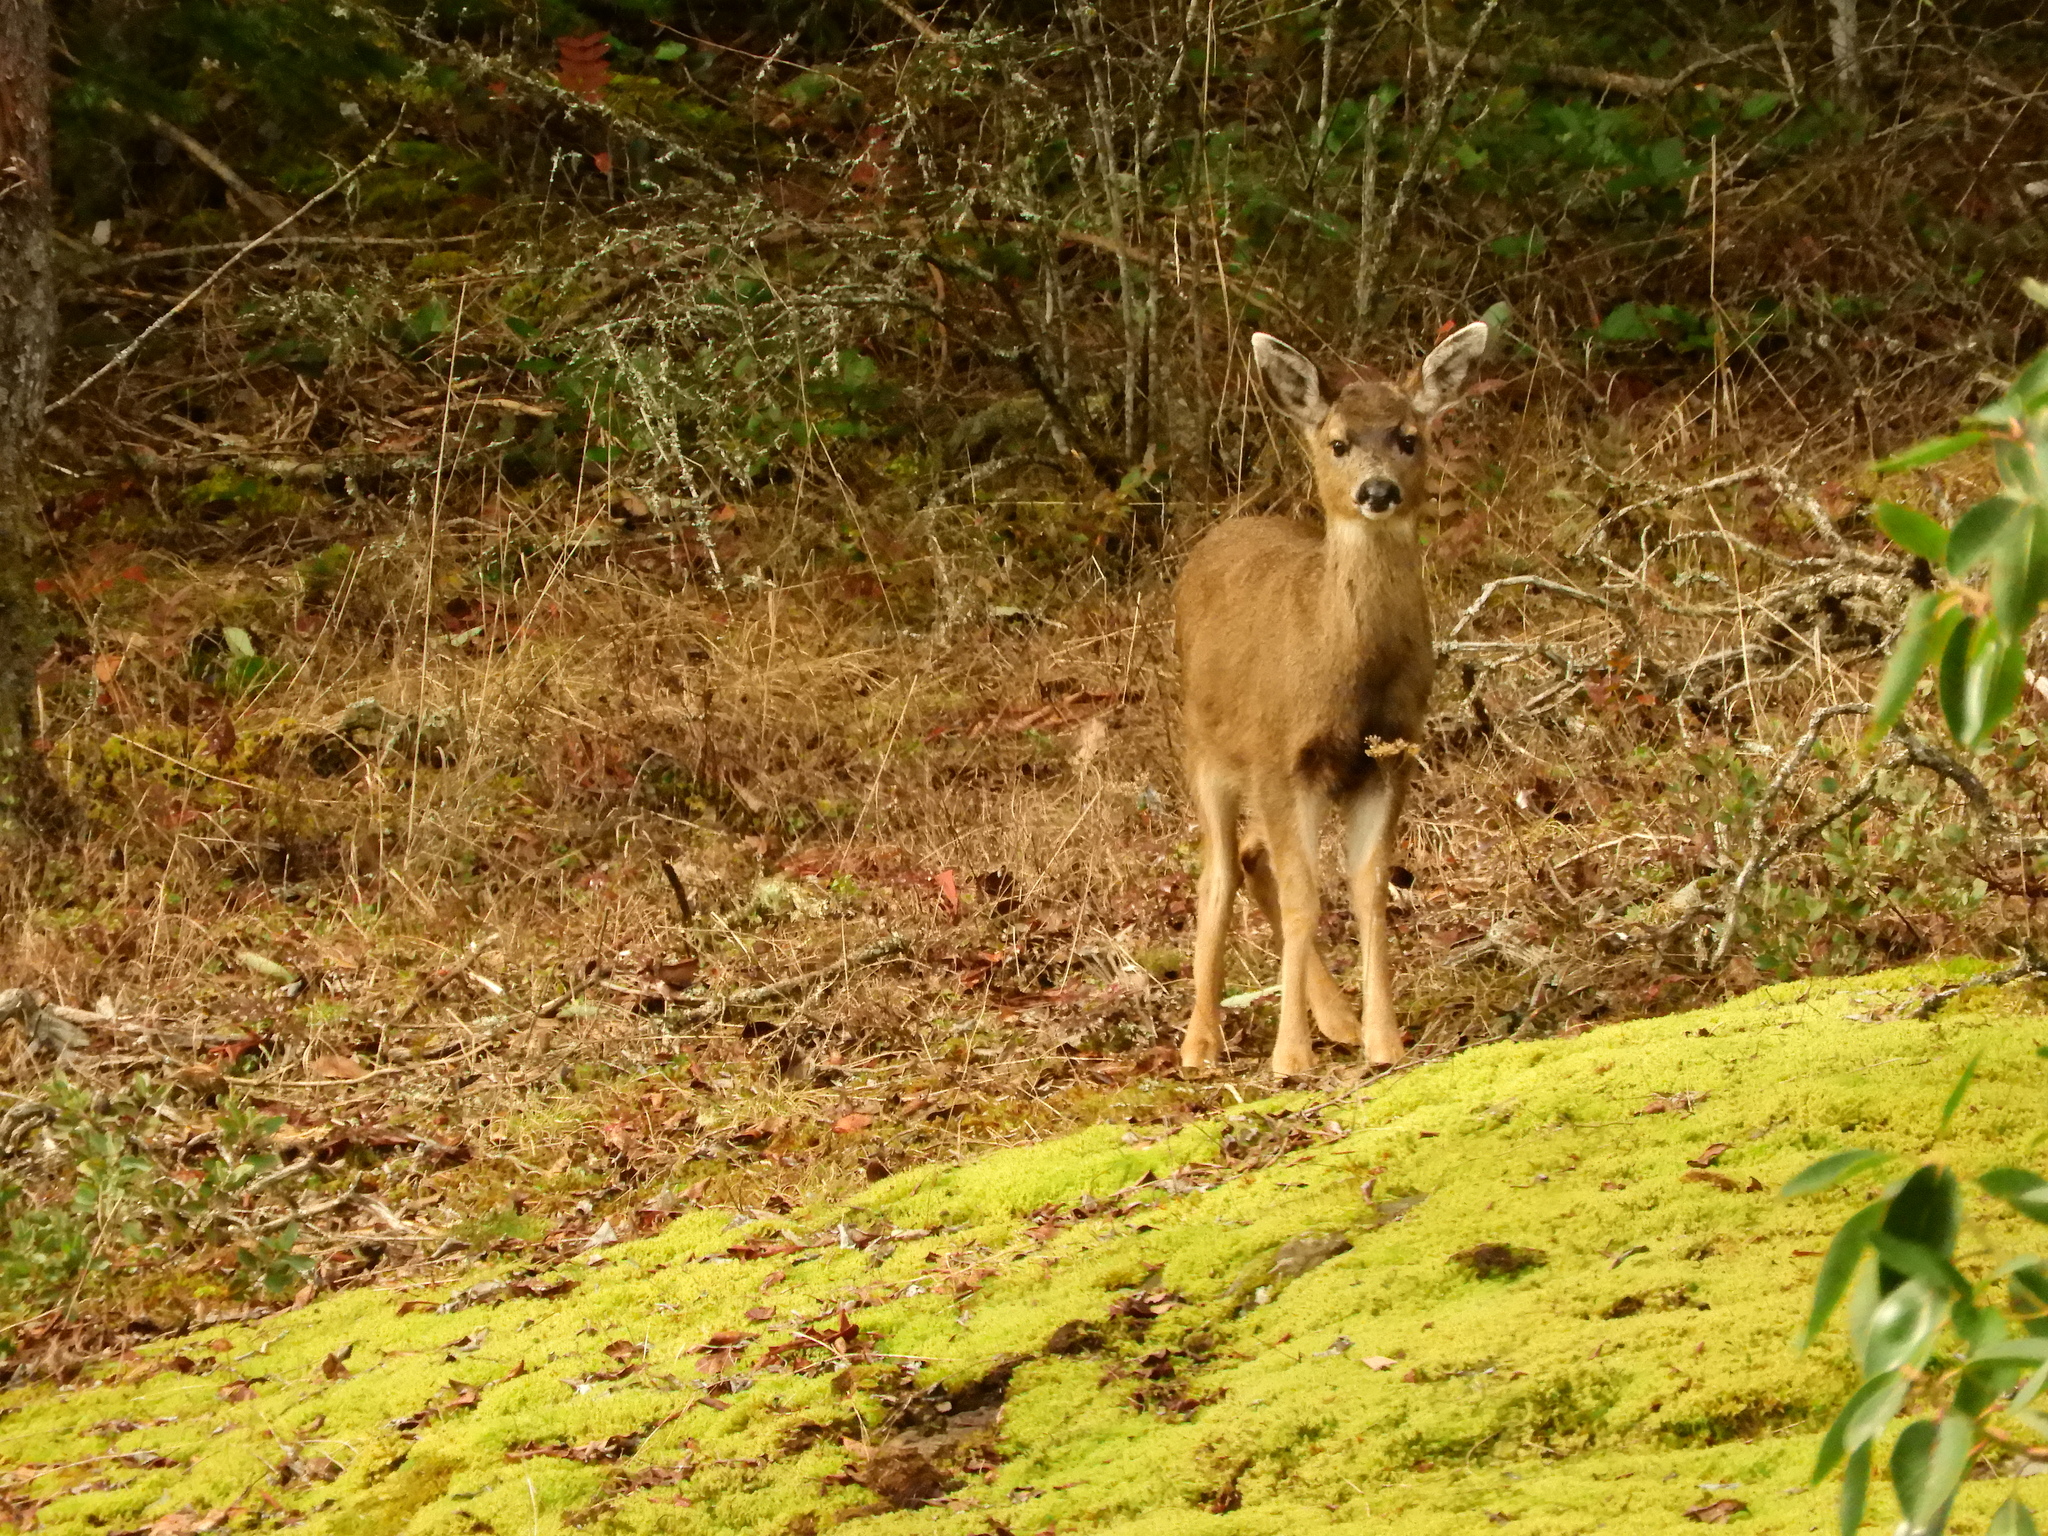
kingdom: Animalia
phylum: Chordata
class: Mammalia
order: Artiodactyla
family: Cervidae
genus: Odocoileus
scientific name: Odocoileus hemionus
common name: Mule deer
